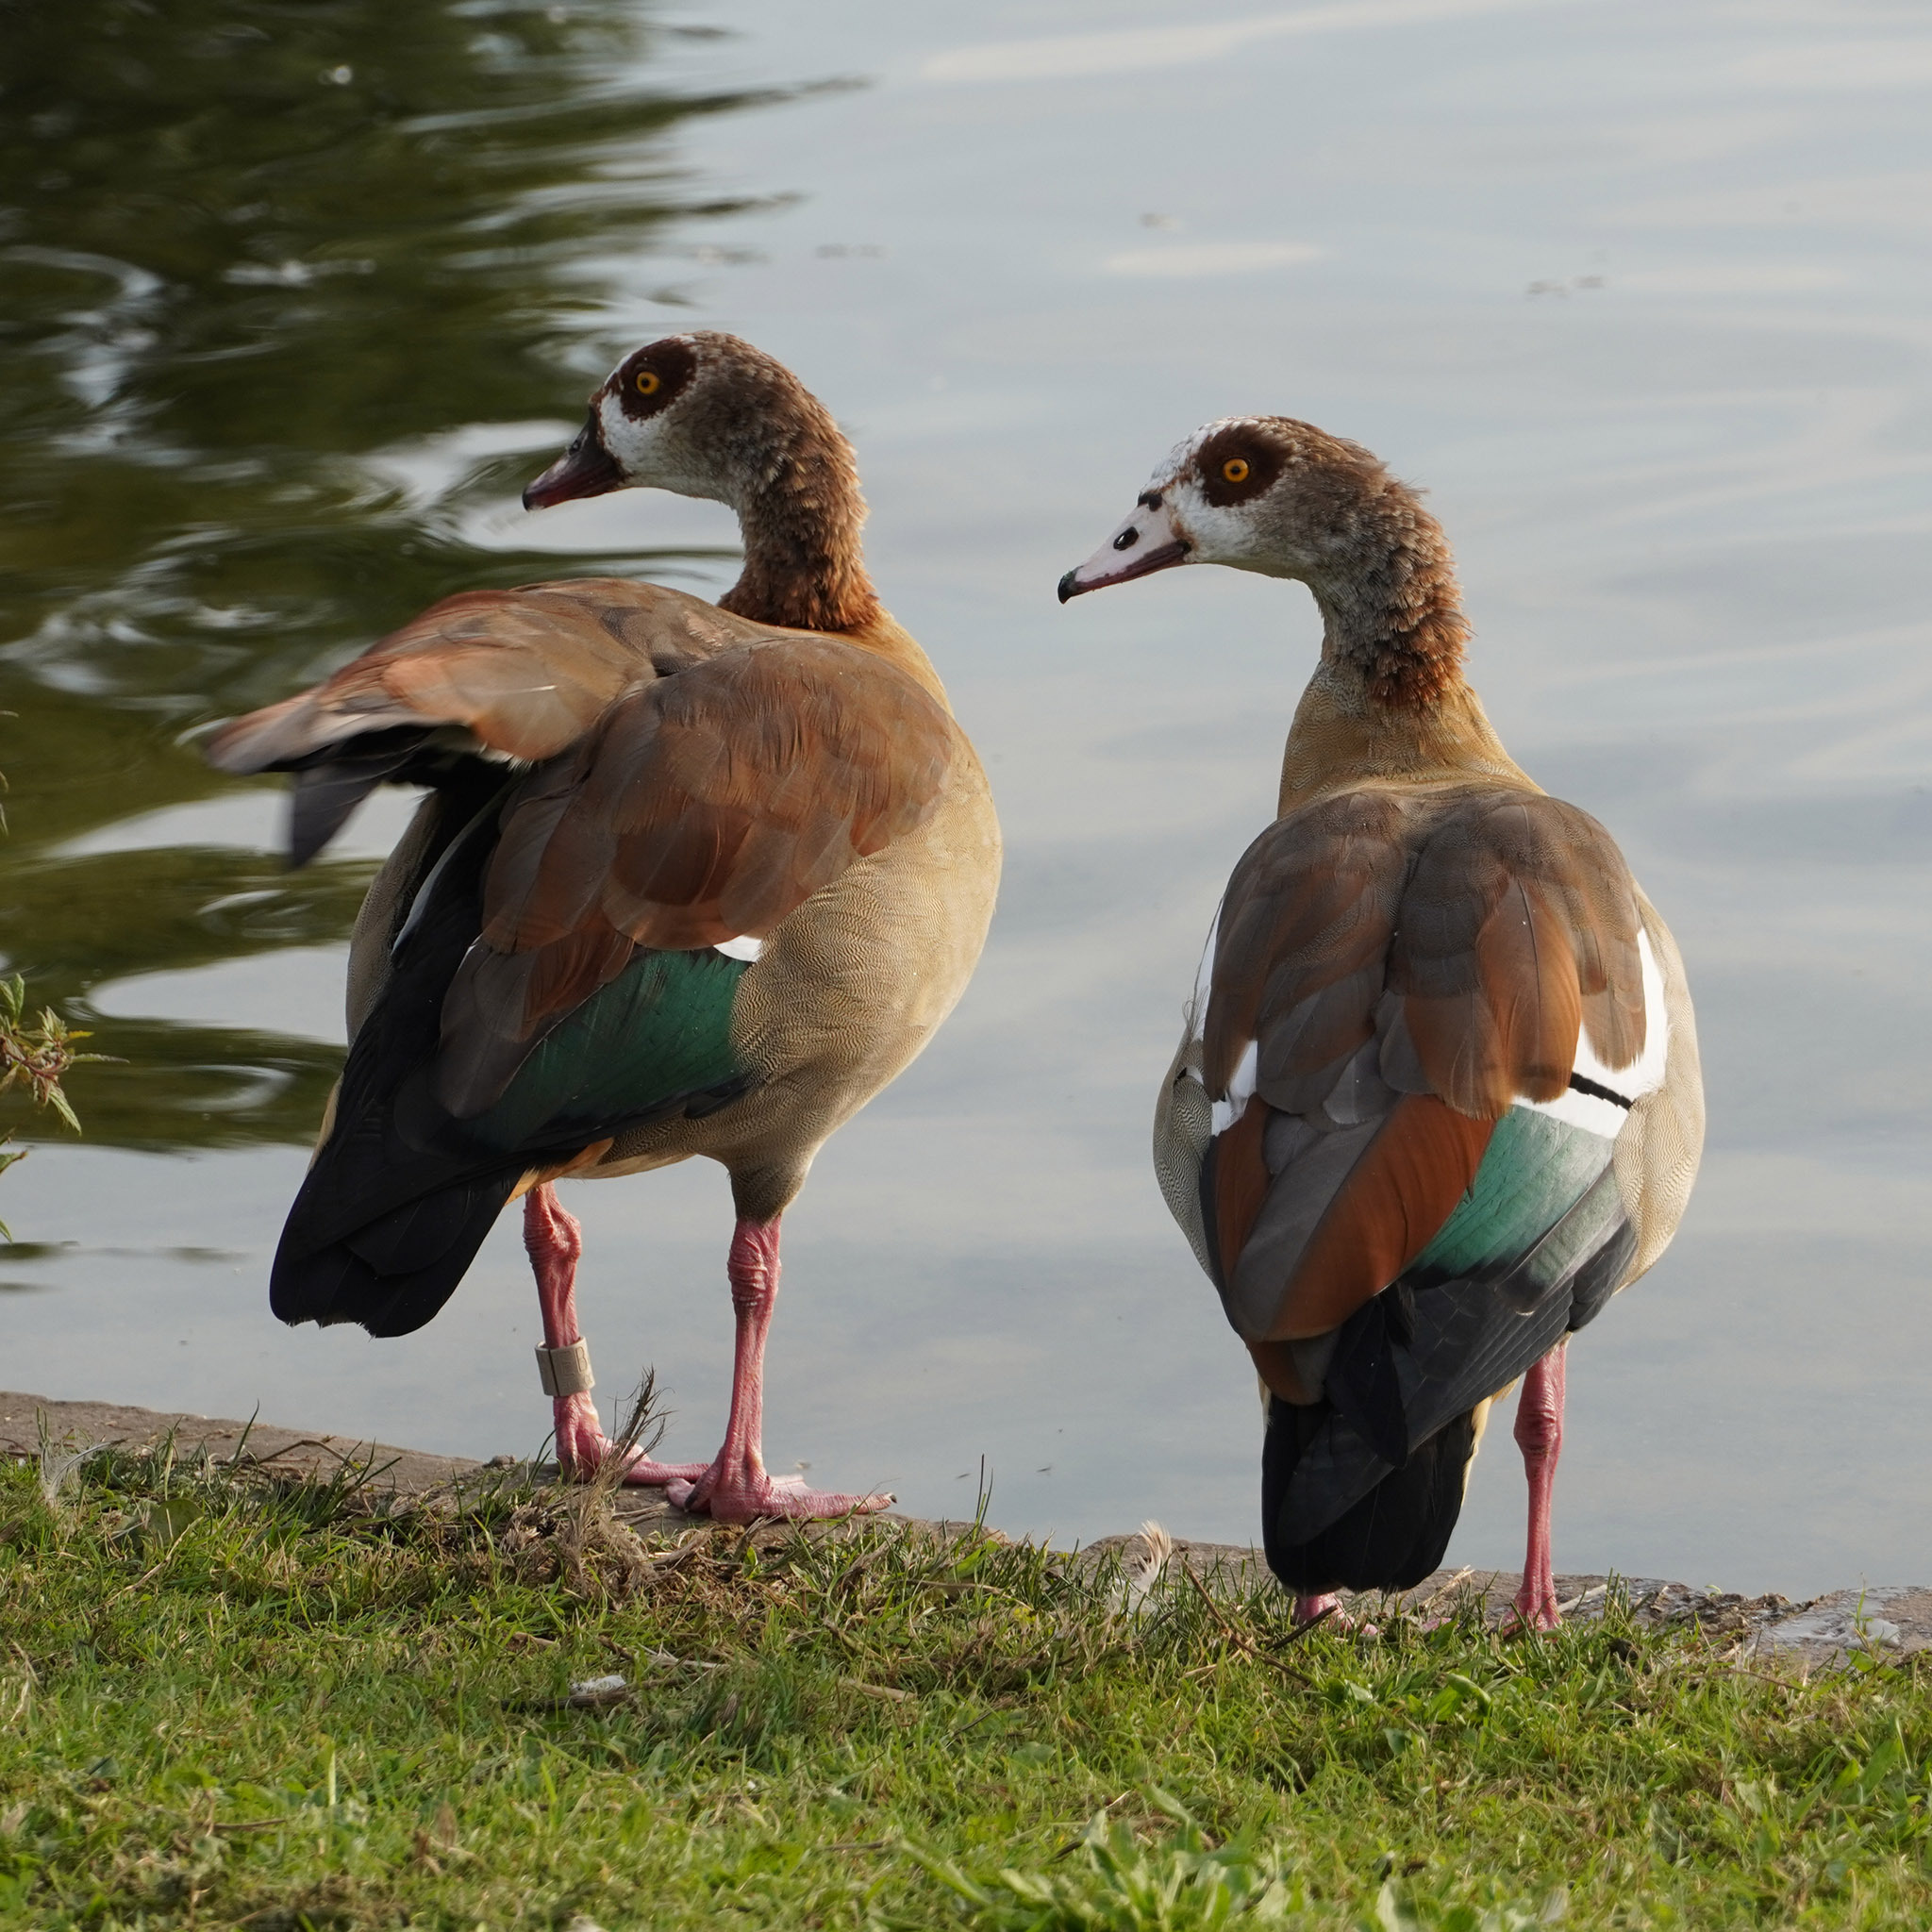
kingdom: Animalia
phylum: Chordata
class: Aves
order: Anseriformes
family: Anatidae
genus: Alopochen
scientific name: Alopochen aegyptiaca
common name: Egyptian goose
